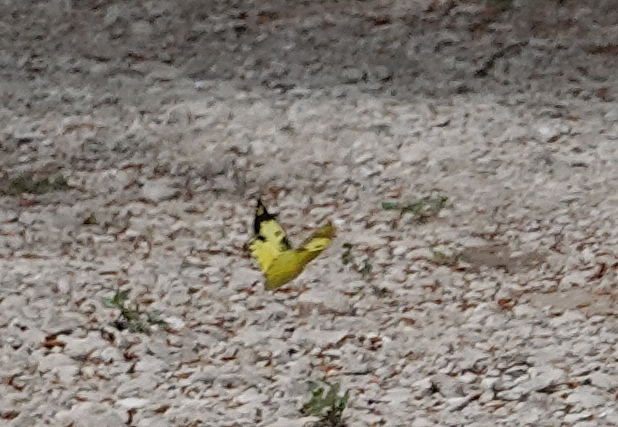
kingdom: Animalia
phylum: Arthropoda
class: Insecta
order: Lepidoptera
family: Pieridae
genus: Zerene
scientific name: Zerene cesonia
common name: Southern dogface
